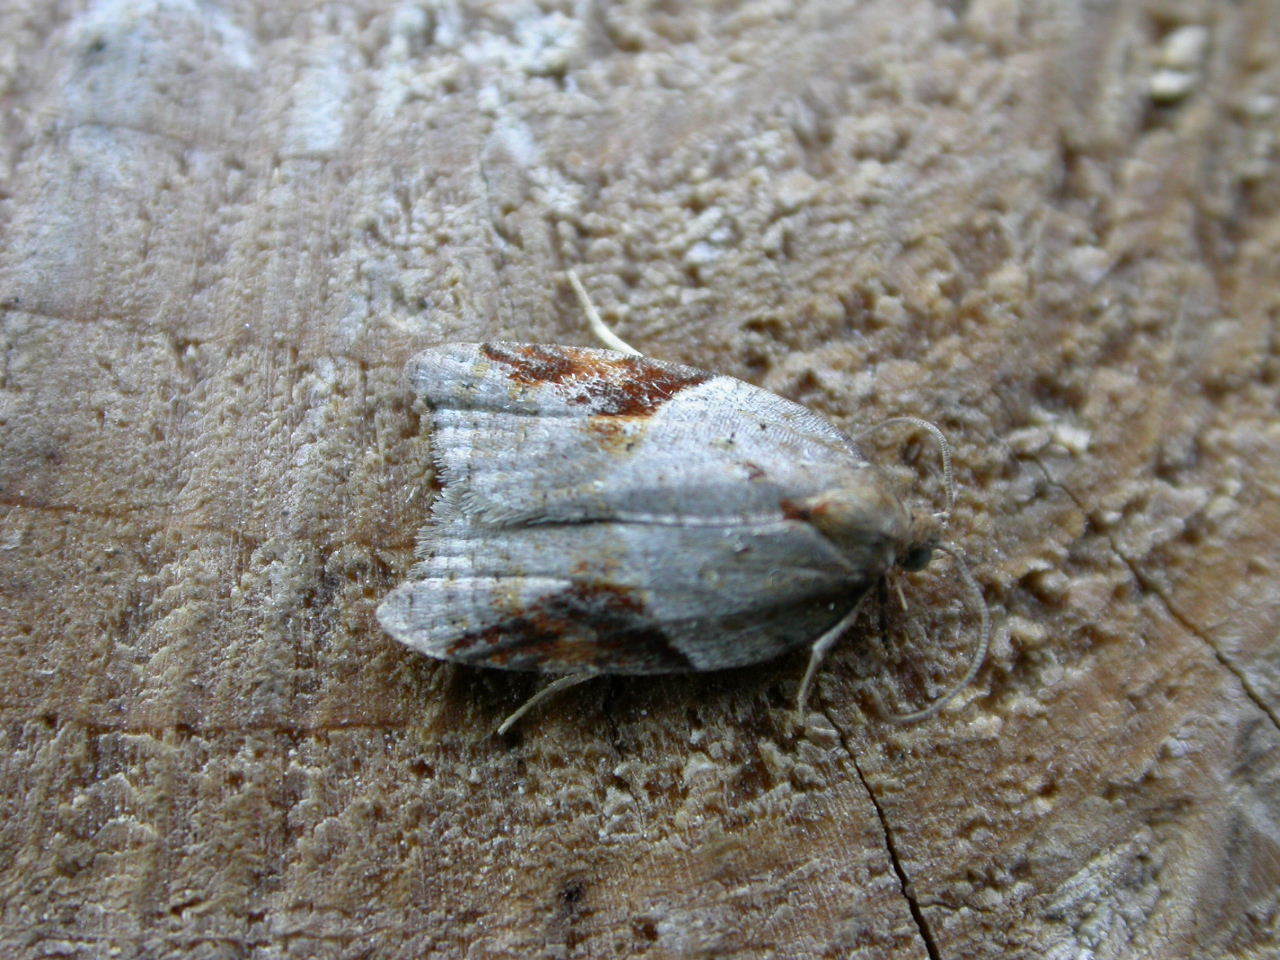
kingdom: Animalia
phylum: Arthropoda
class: Insecta
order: Lepidoptera
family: Tortricidae
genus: Acleris
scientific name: Acleris laterana
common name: Dark-triangle button
